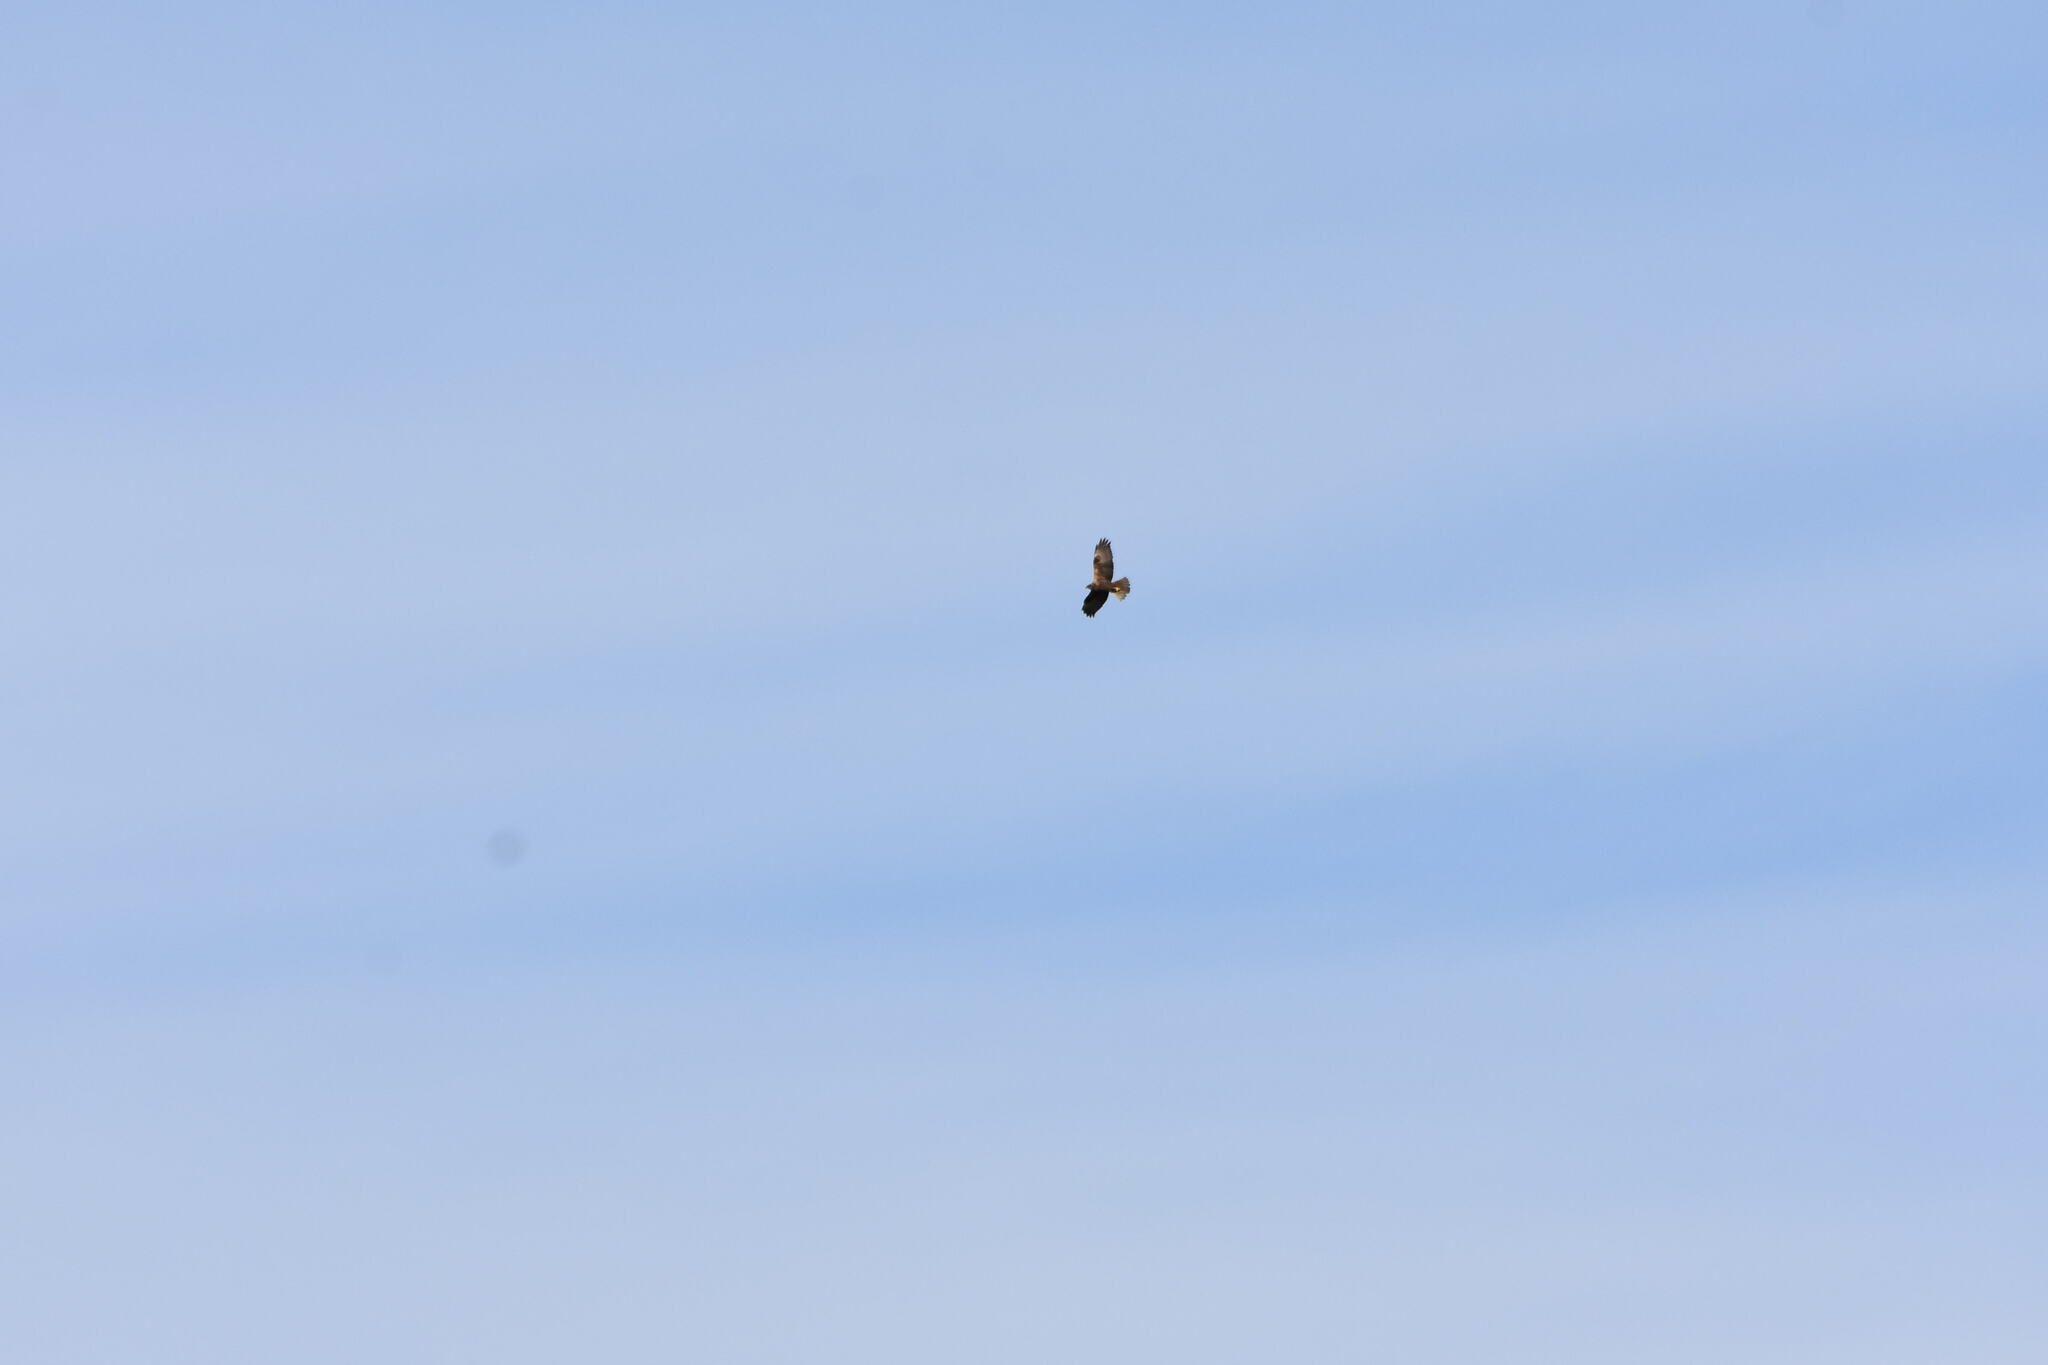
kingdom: Animalia
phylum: Chordata
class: Aves
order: Accipitriformes
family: Accipitridae
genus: Circus
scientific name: Circus aeruginosus
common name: Western marsh harrier
